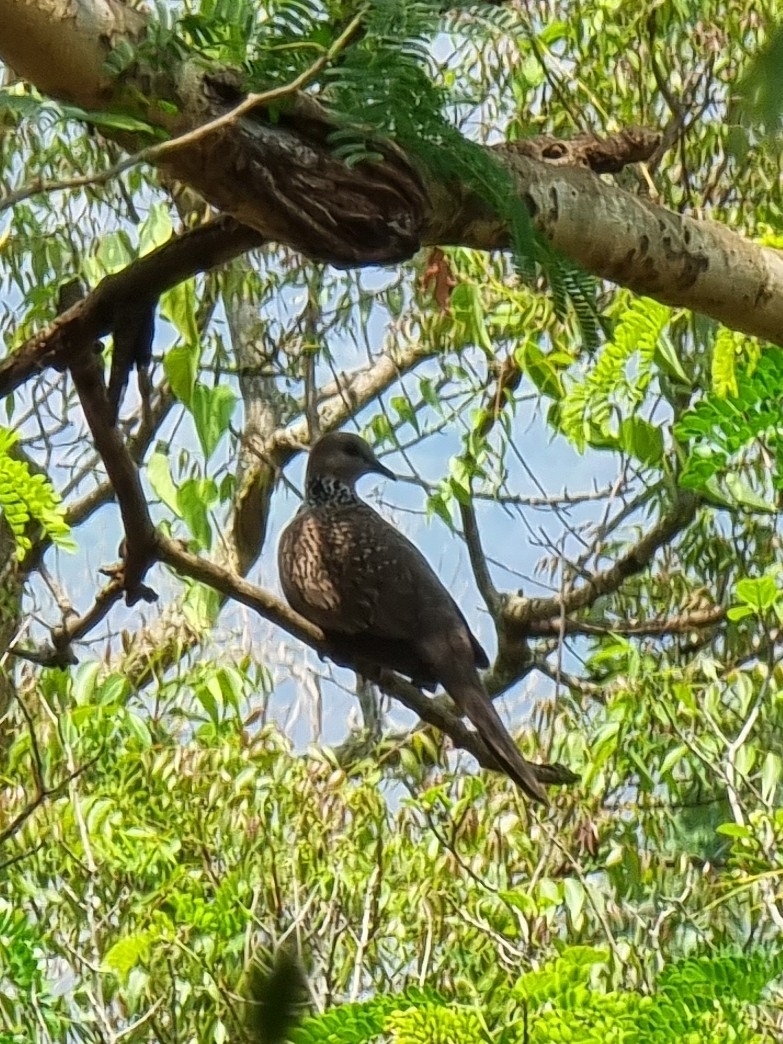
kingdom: Animalia
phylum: Chordata
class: Aves
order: Columbiformes
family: Columbidae
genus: Spilopelia
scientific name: Spilopelia chinensis
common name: Spotted dove
